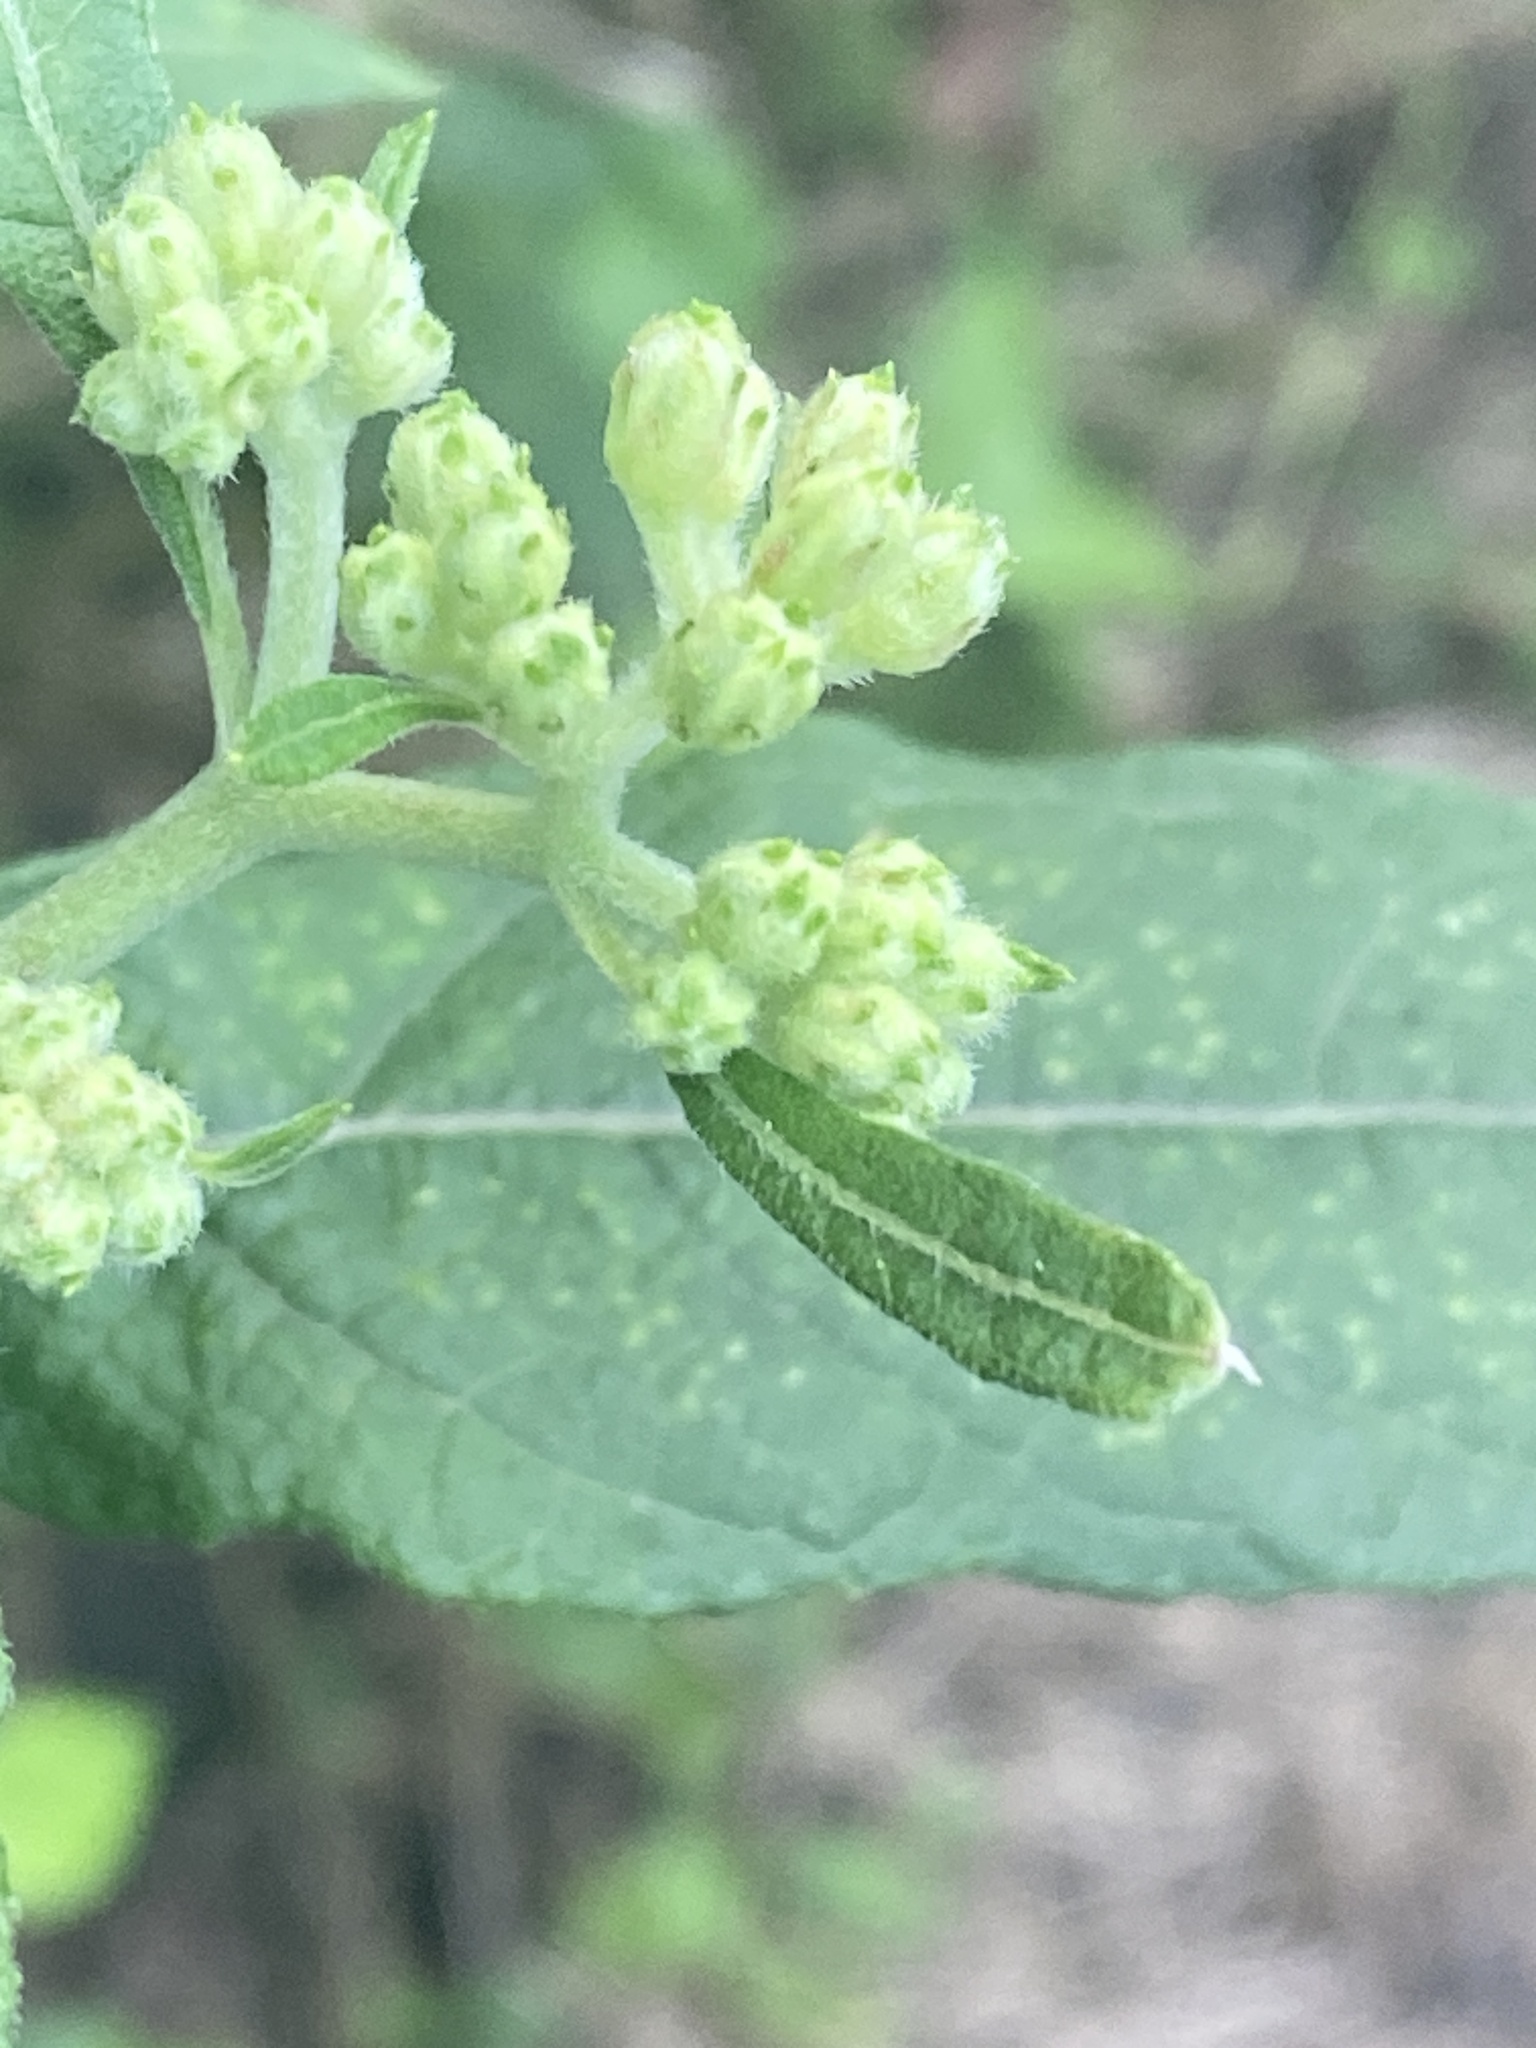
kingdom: Plantae
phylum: Tracheophyta
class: Magnoliopsida
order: Asterales
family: Asteraceae
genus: Verbesina
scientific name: Verbesina virginica
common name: Frostweed
